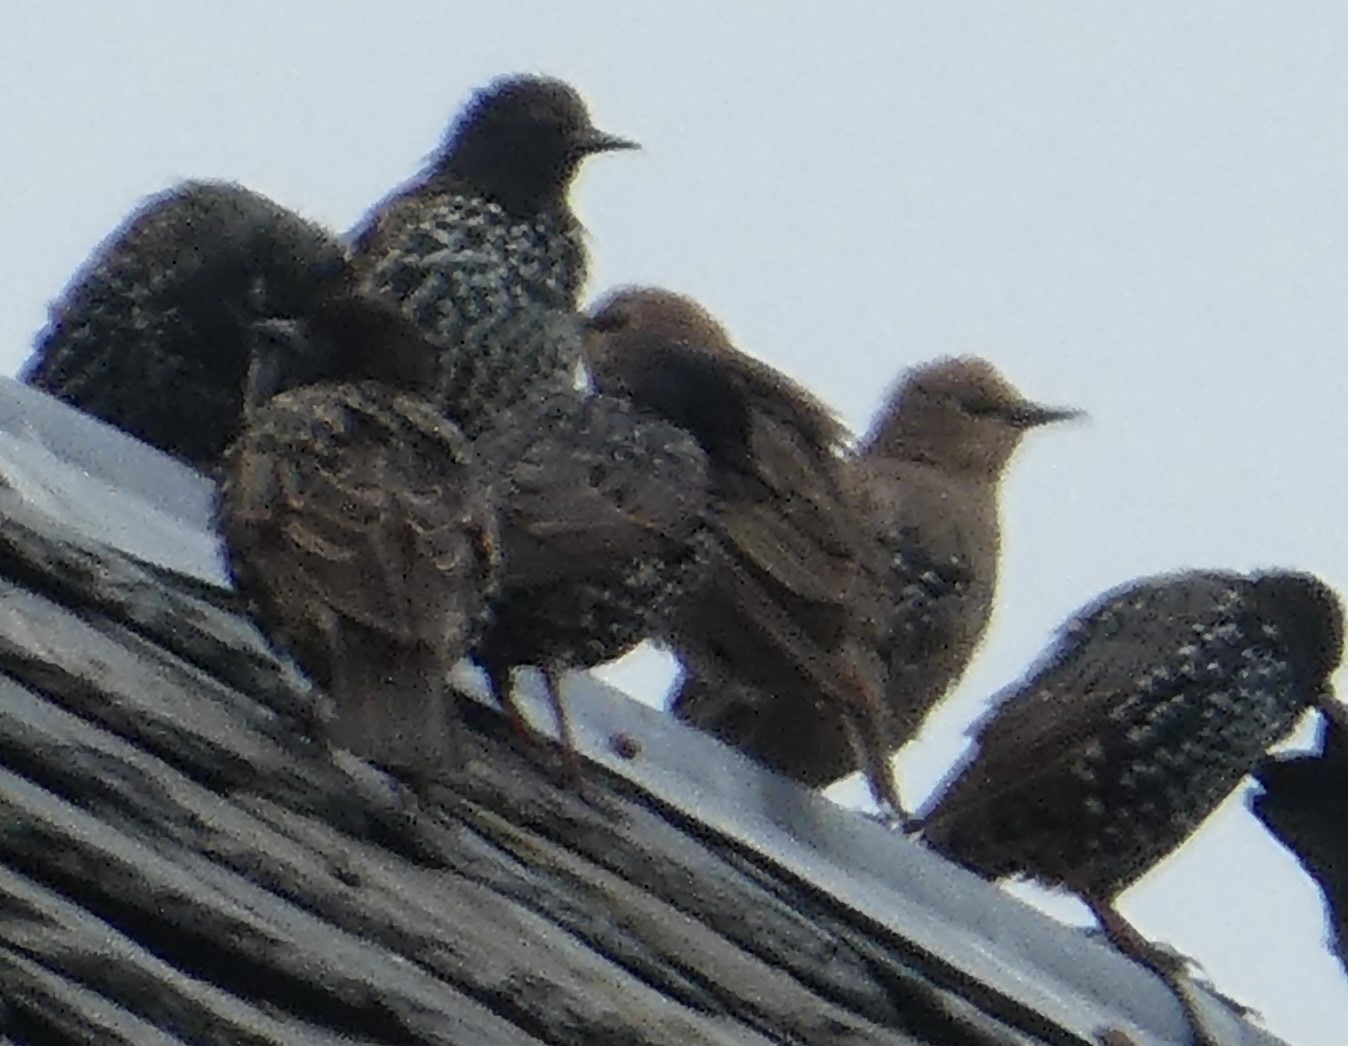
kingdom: Animalia
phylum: Chordata
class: Aves
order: Passeriformes
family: Sturnidae
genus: Sturnus
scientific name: Sturnus vulgaris
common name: Common starling
